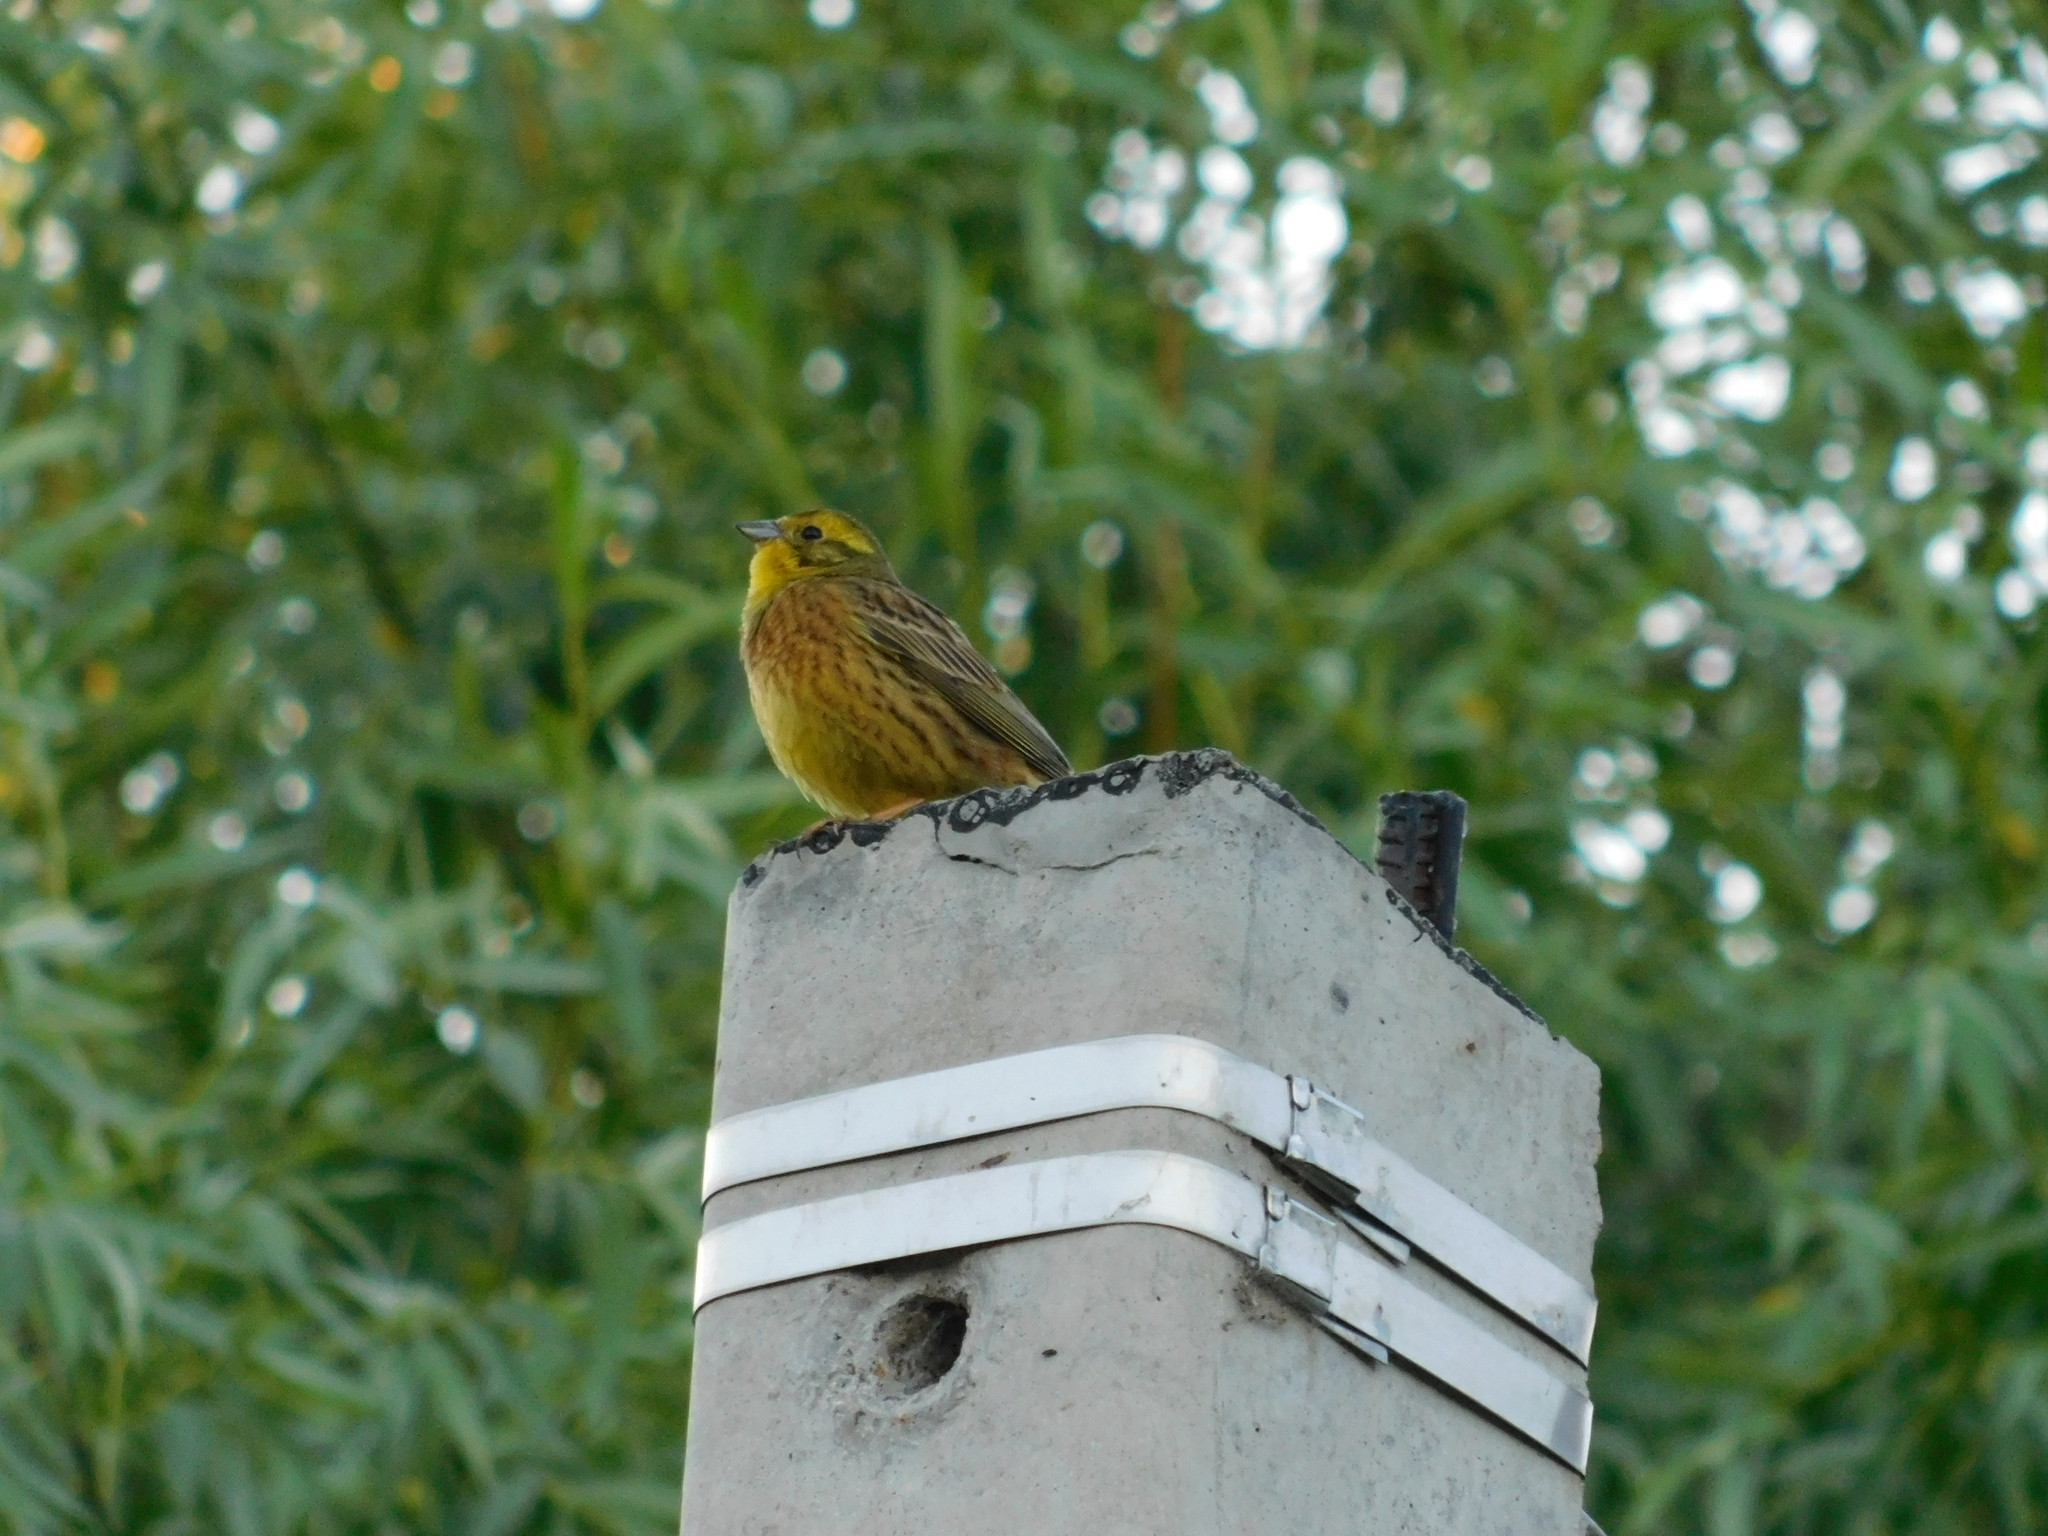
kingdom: Animalia
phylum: Chordata
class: Aves
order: Passeriformes
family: Emberizidae
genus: Emberiza
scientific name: Emberiza citrinella
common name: Yellowhammer
